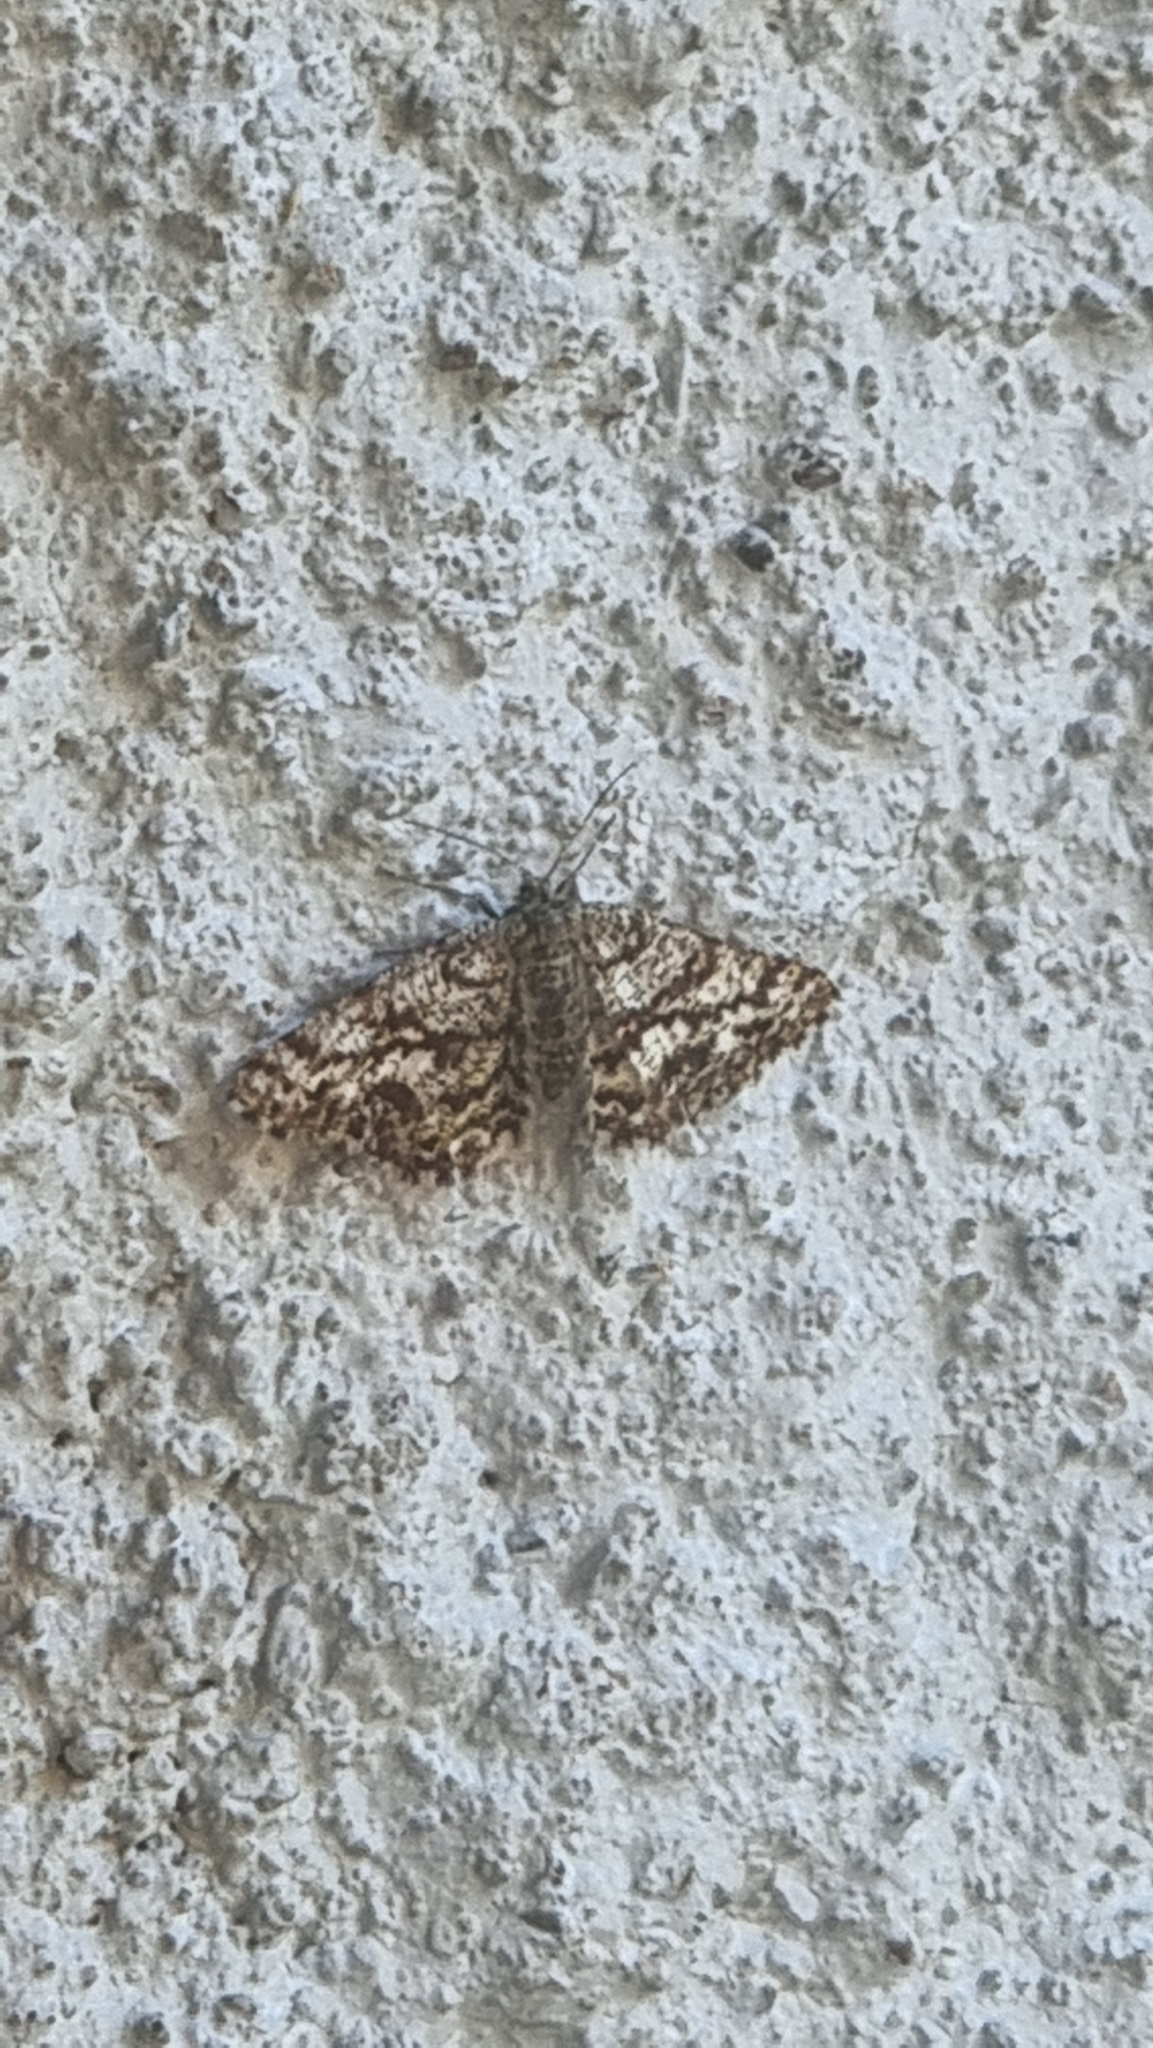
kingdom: Animalia
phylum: Arthropoda
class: Insecta
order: Lepidoptera
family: Geometridae
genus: Ematurga
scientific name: Ematurga atomaria
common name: Common heath
